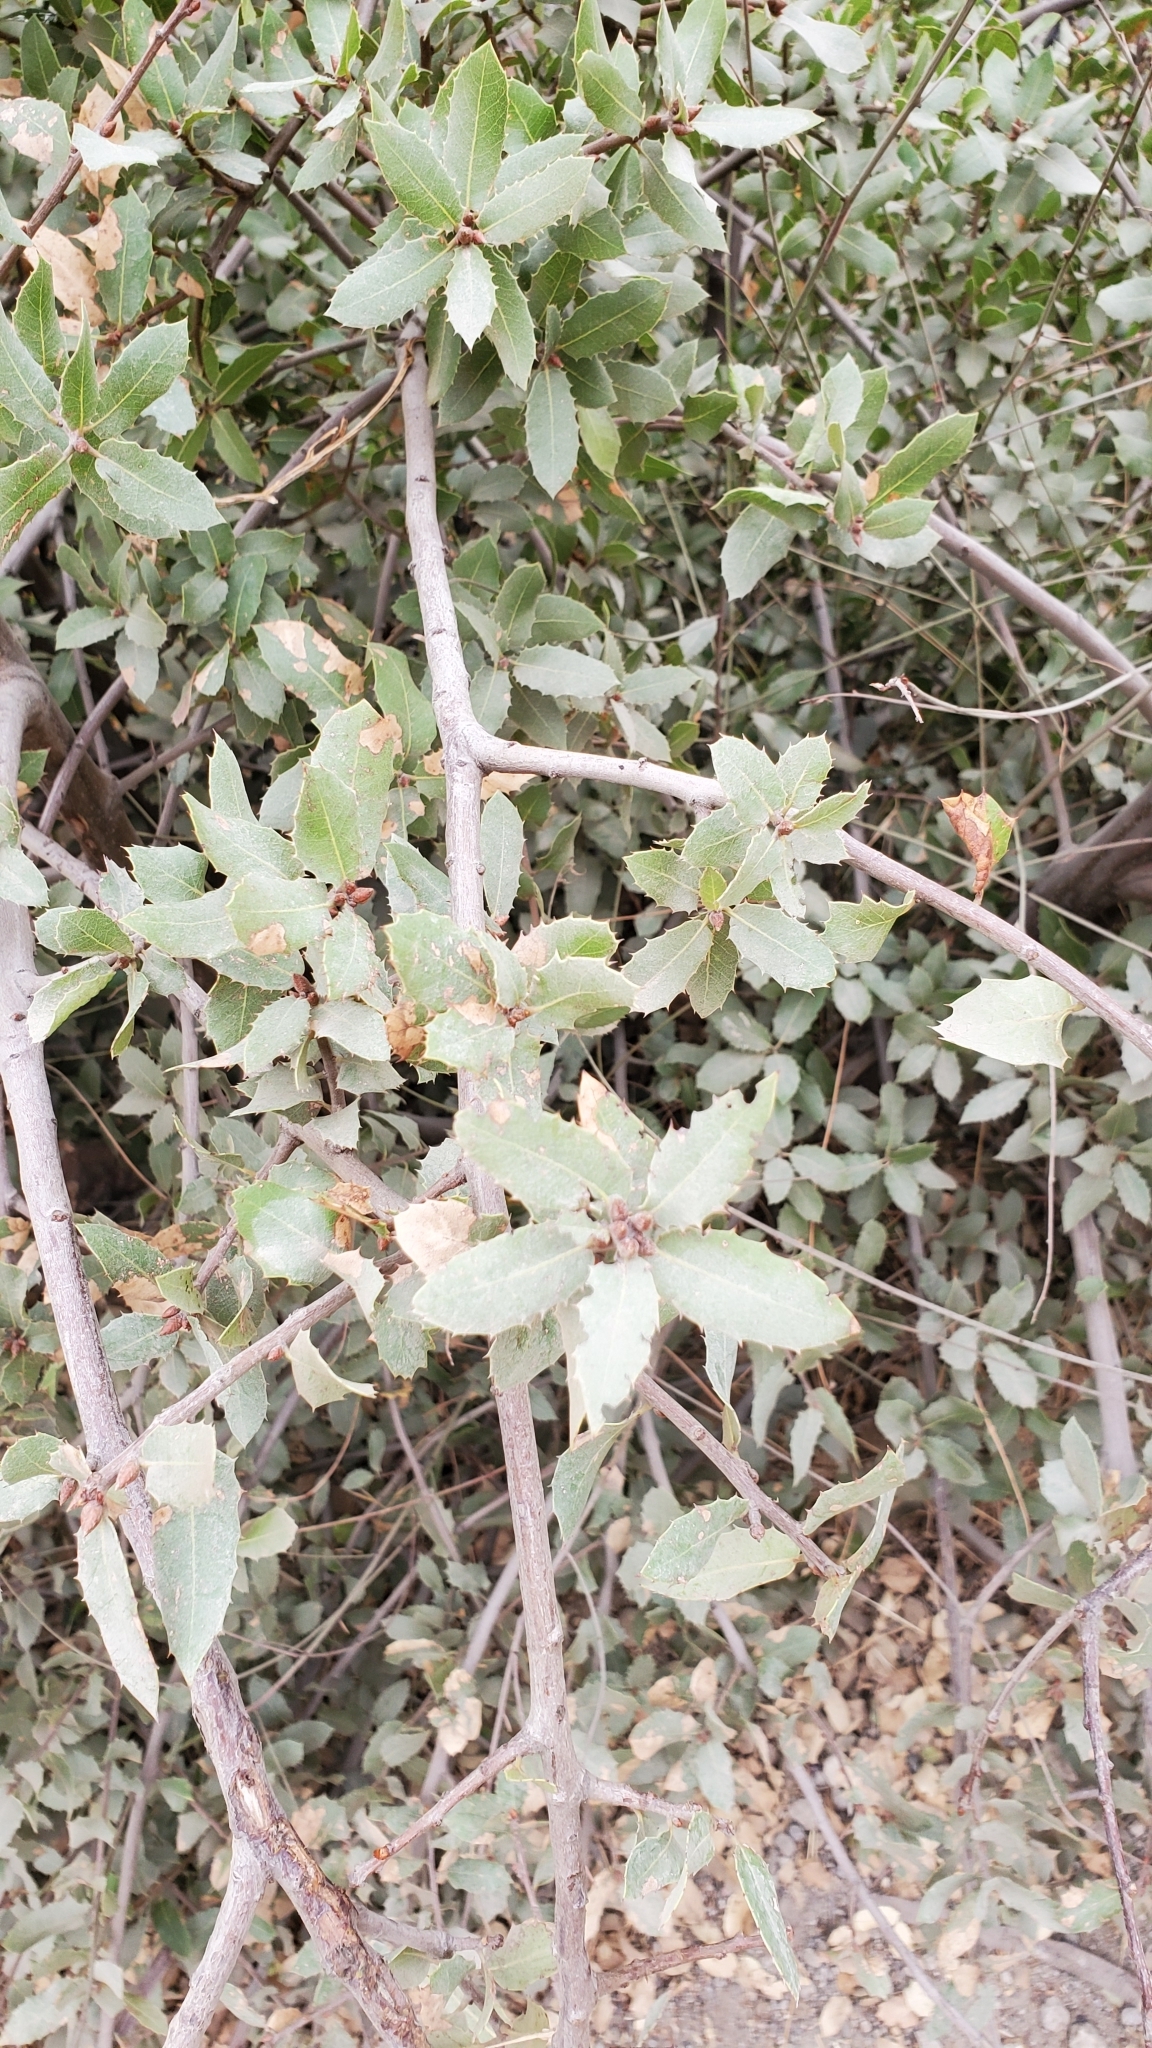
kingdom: Plantae
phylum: Tracheophyta
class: Magnoliopsida
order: Fagales
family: Fagaceae
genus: Quercus
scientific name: Quercus wislizeni
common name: Interior live oak
